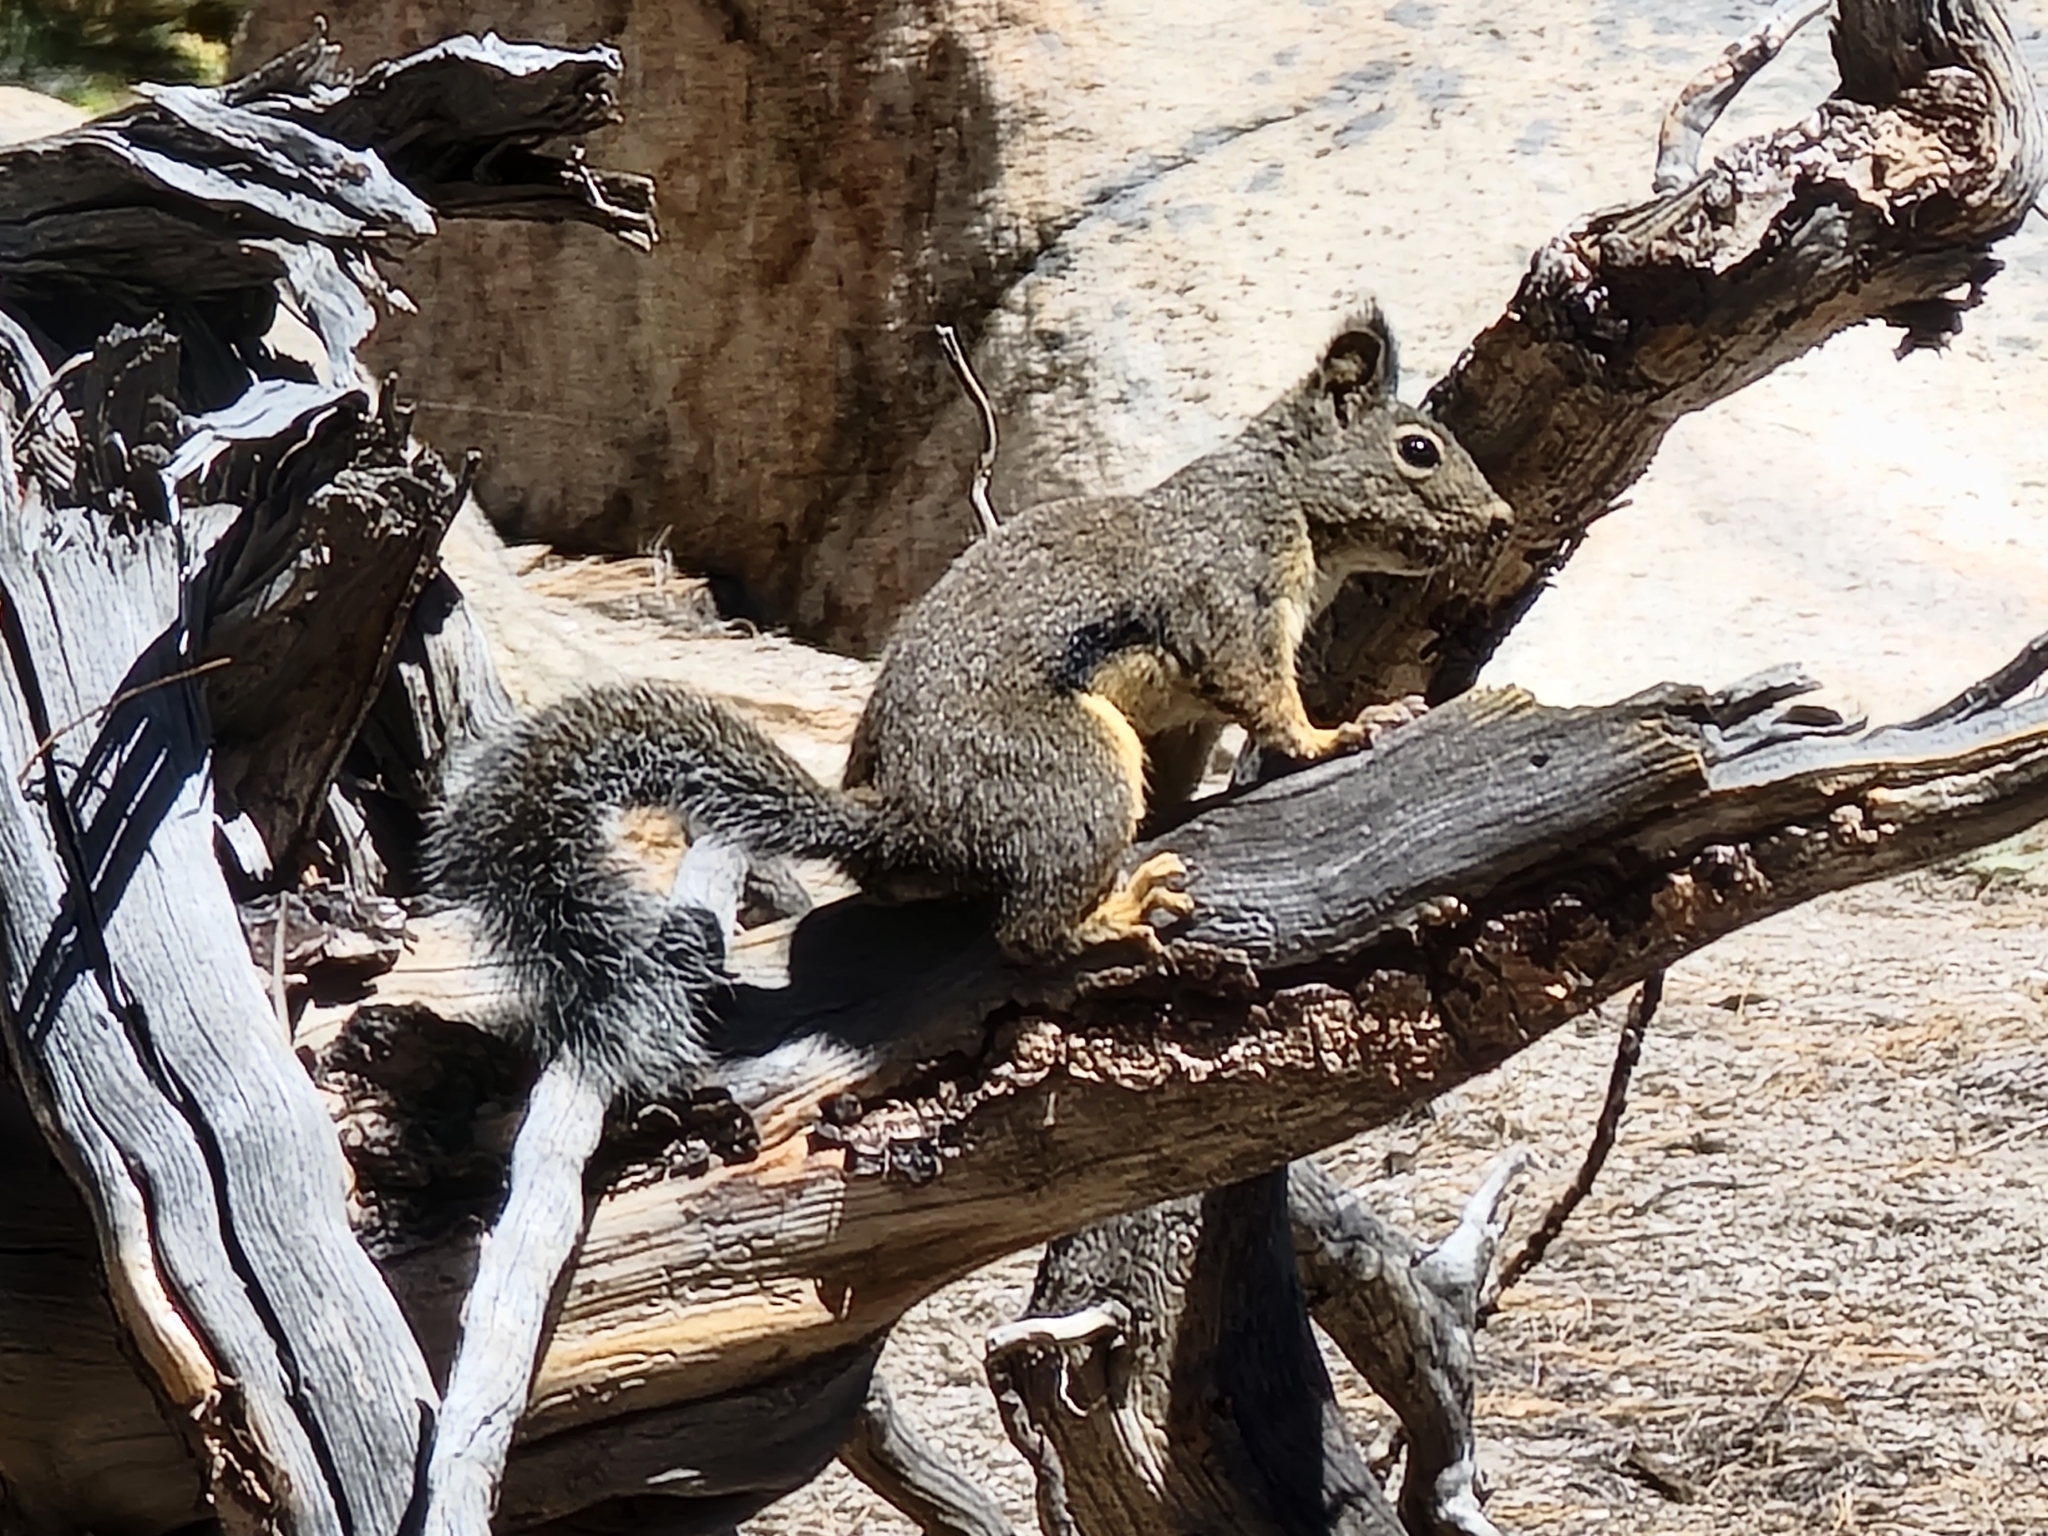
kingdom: Animalia
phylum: Chordata
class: Mammalia
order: Rodentia
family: Sciuridae
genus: Tamiasciurus
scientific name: Tamiasciurus douglasii
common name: Douglas's squirrel
